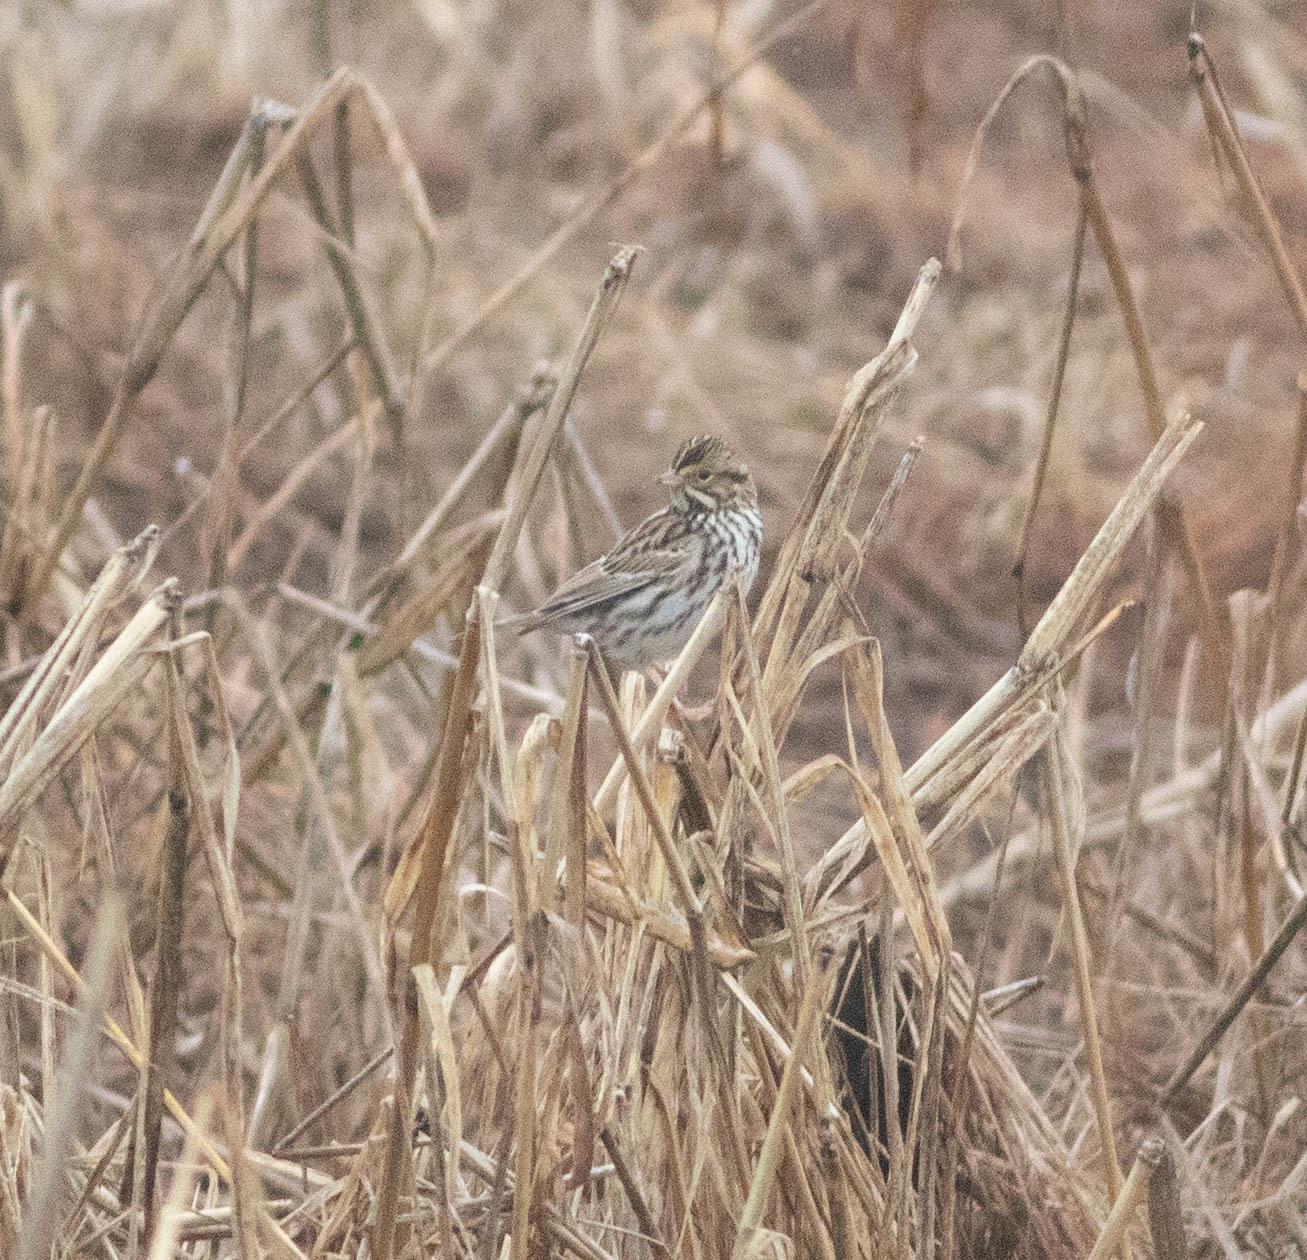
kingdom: Animalia
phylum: Chordata
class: Aves
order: Passeriformes
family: Passerellidae
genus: Passerculus
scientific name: Passerculus sandwichensis
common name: Savannah sparrow
